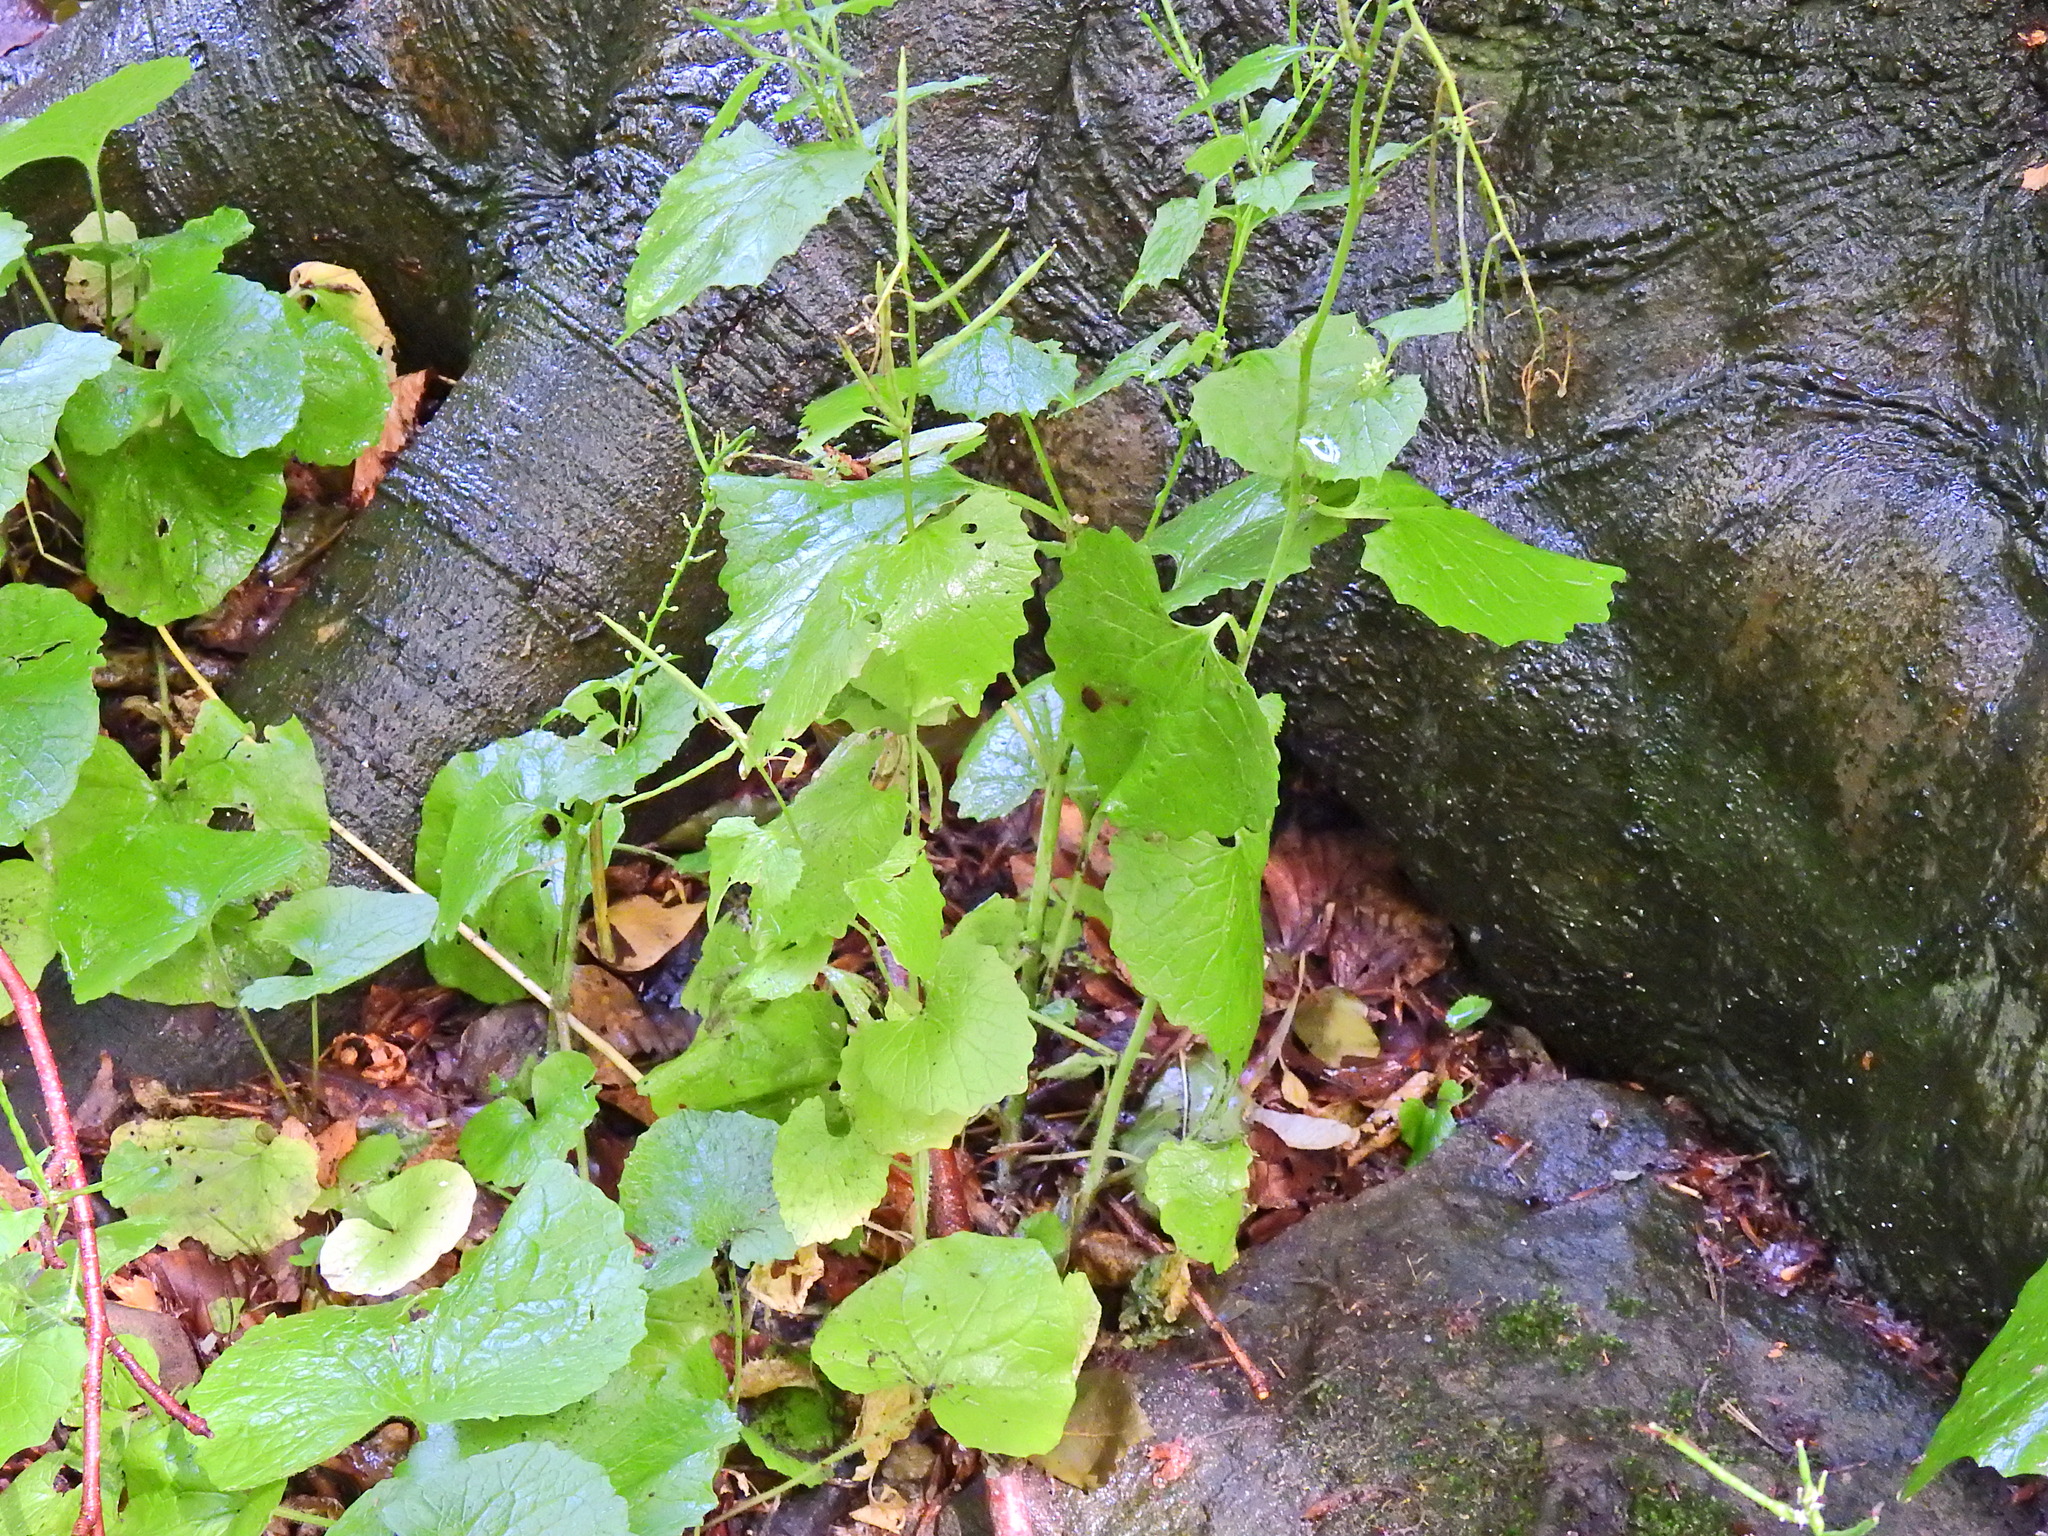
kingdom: Plantae
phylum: Tracheophyta
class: Magnoliopsida
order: Brassicales
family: Brassicaceae
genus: Alliaria
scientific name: Alliaria petiolata
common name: Garlic mustard
